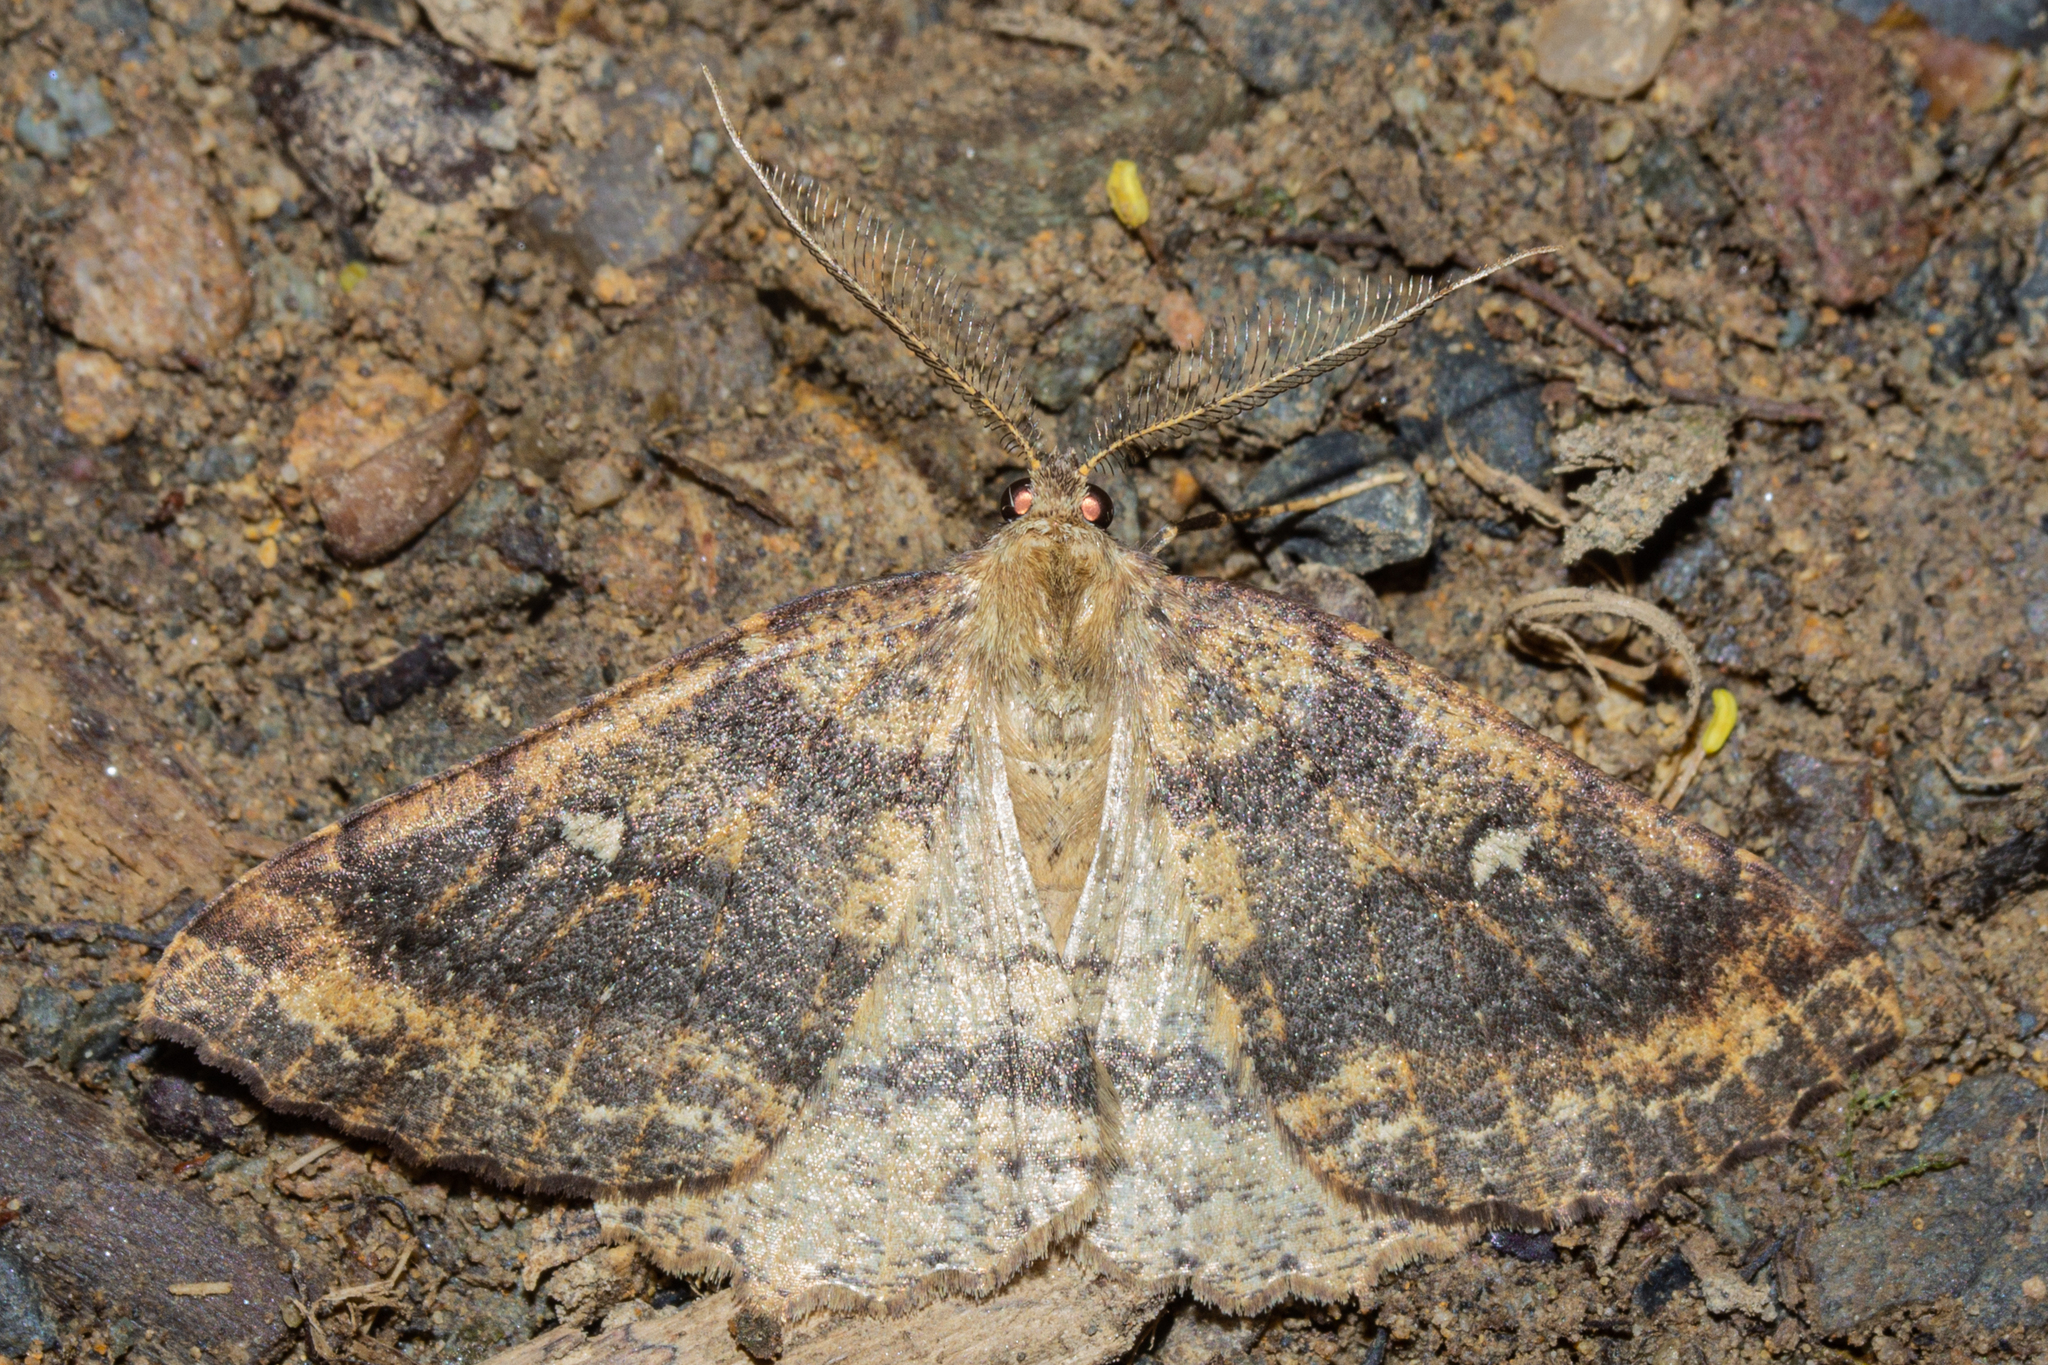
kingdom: Animalia
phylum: Arthropoda
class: Insecta
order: Lepidoptera
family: Geometridae
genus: Cleora
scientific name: Cleora scriptaria
